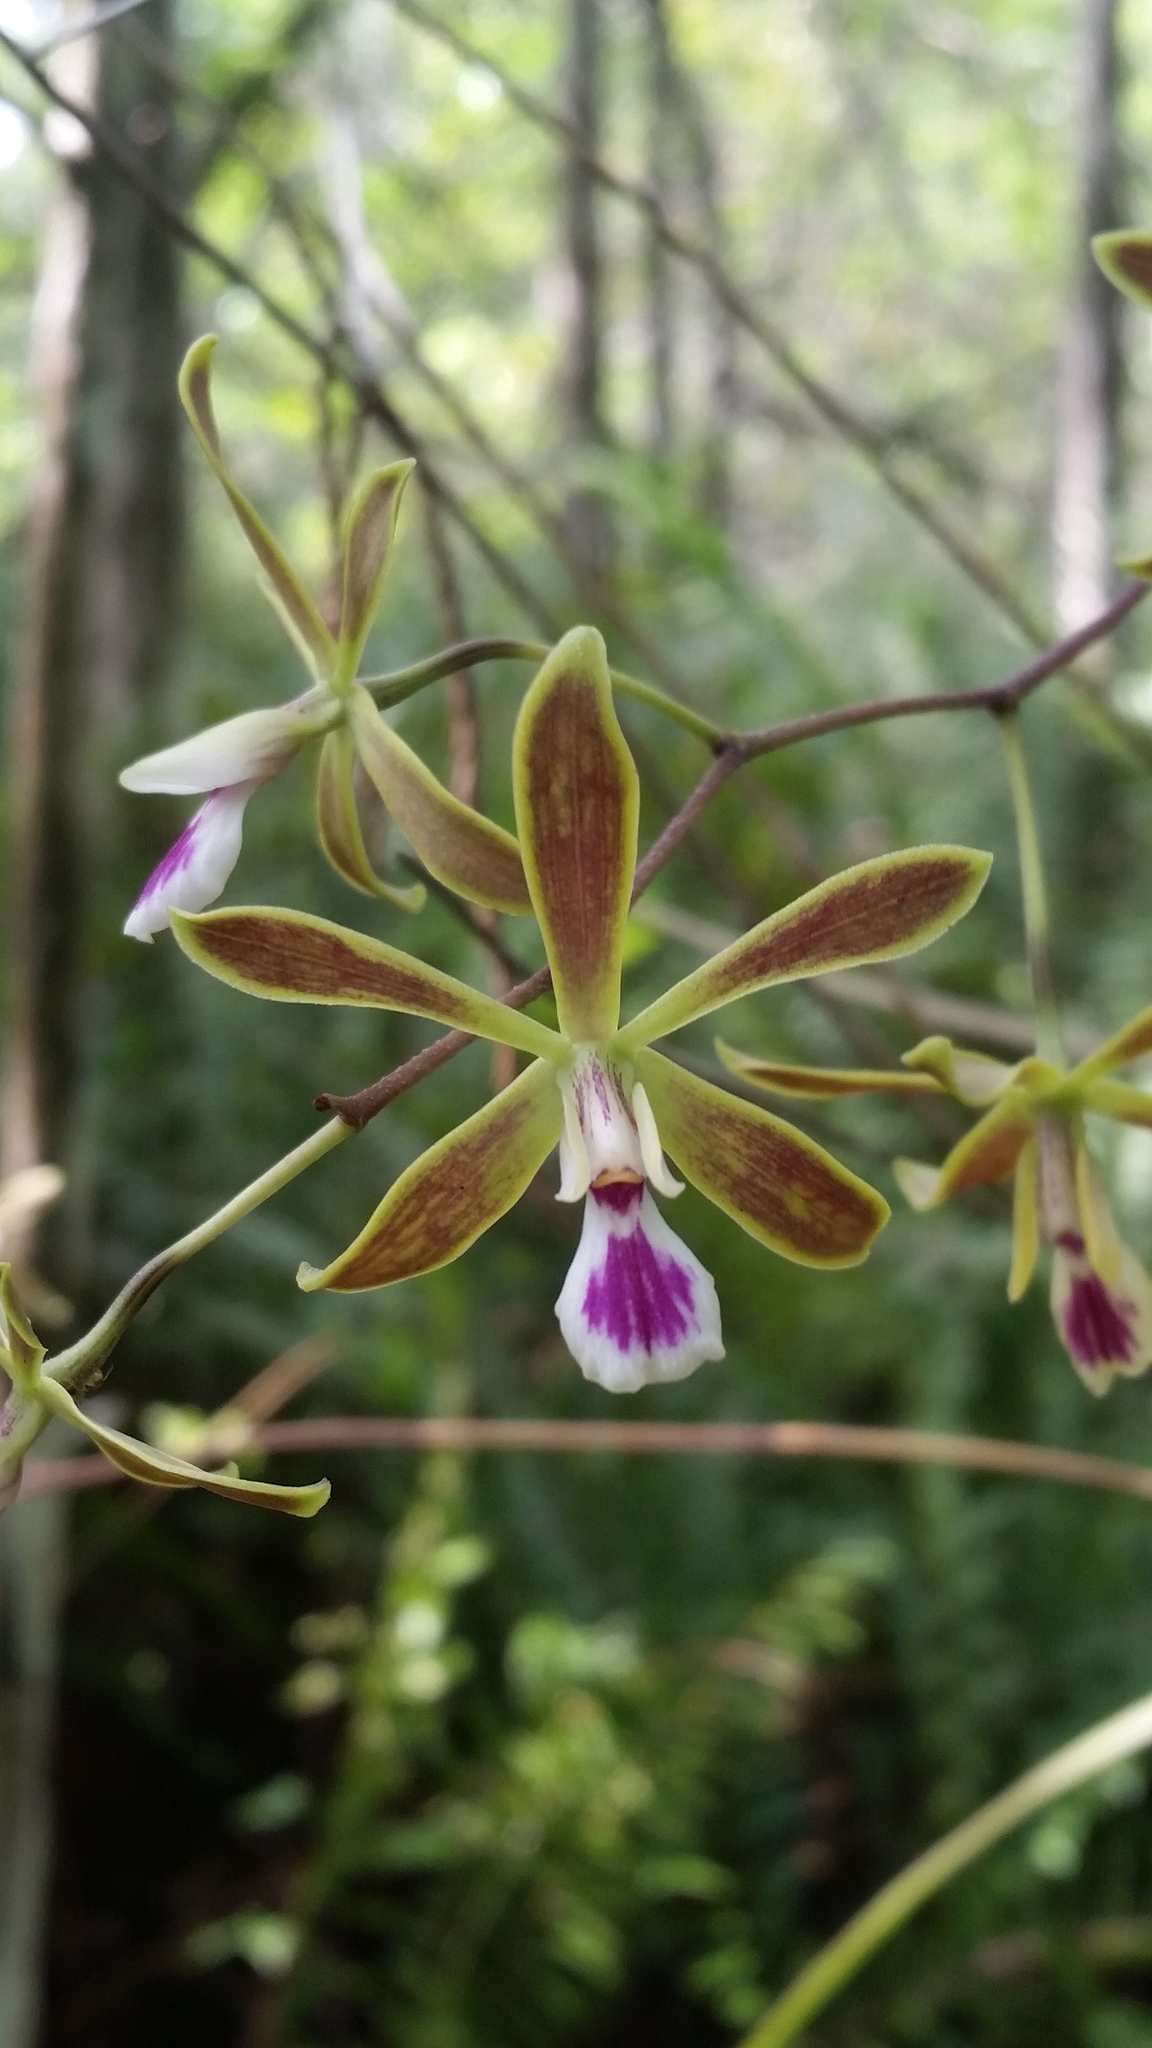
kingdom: Plantae
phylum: Tracheophyta
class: Liliopsida
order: Asparagales
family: Orchidaceae
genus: Encyclia
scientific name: Encyclia tampensis
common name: Florida butterfly orchid
